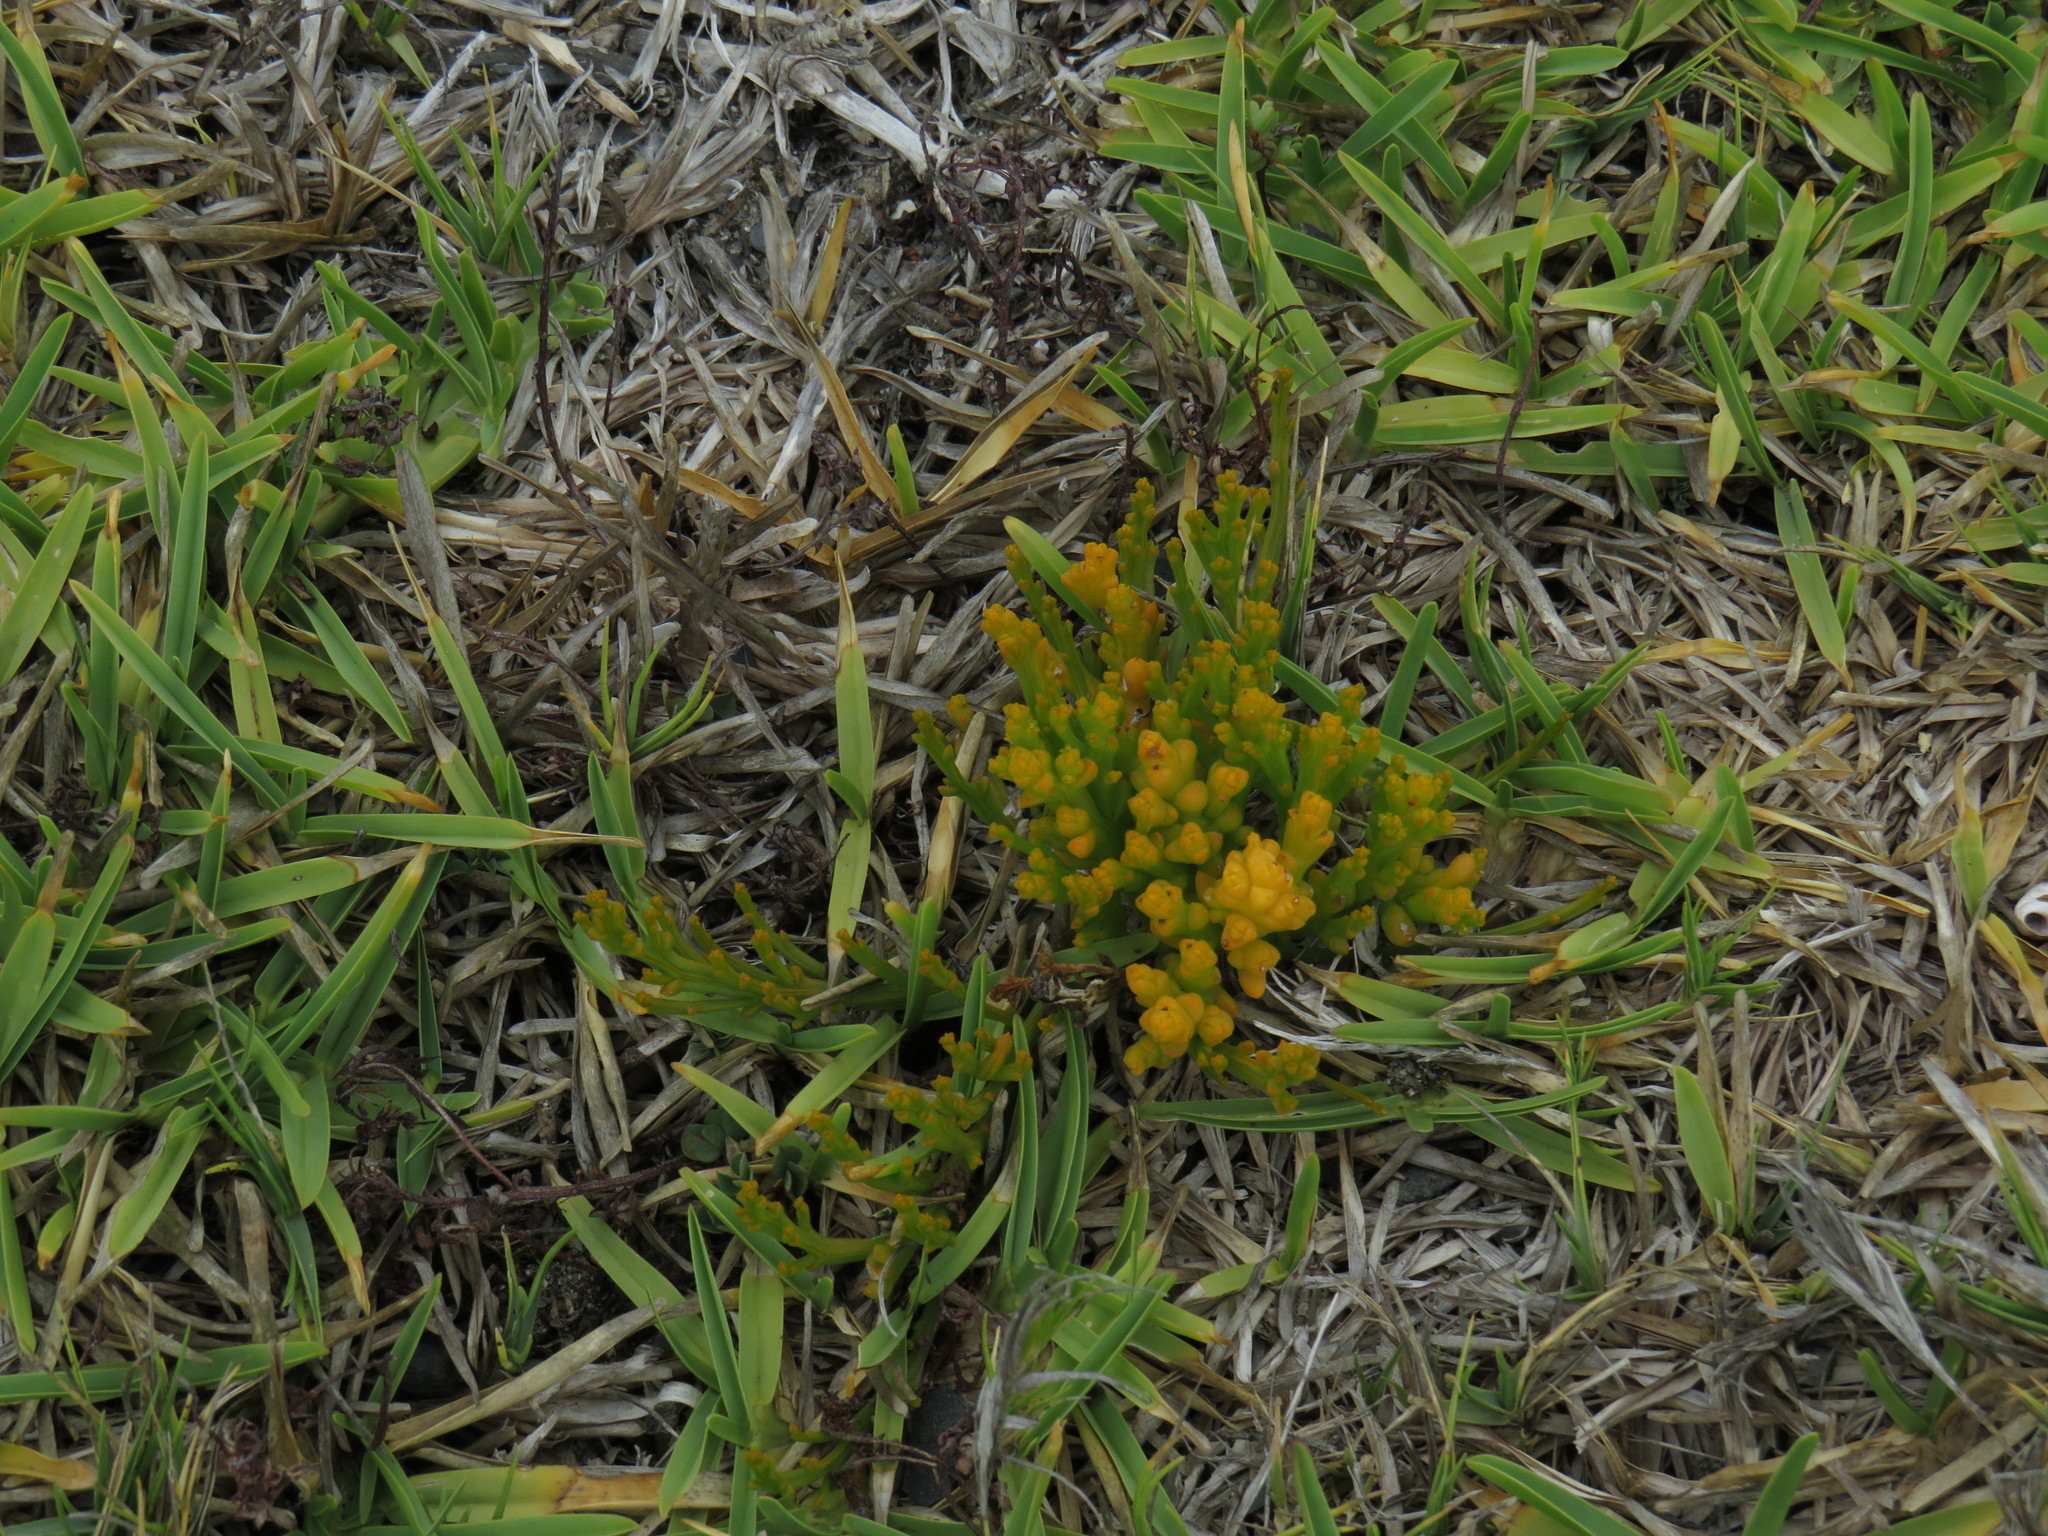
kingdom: Plantae
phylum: Tracheophyta
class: Magnoliopsida
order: Santalales
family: Thesiaceae
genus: Thesium
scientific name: Thesium fragile
